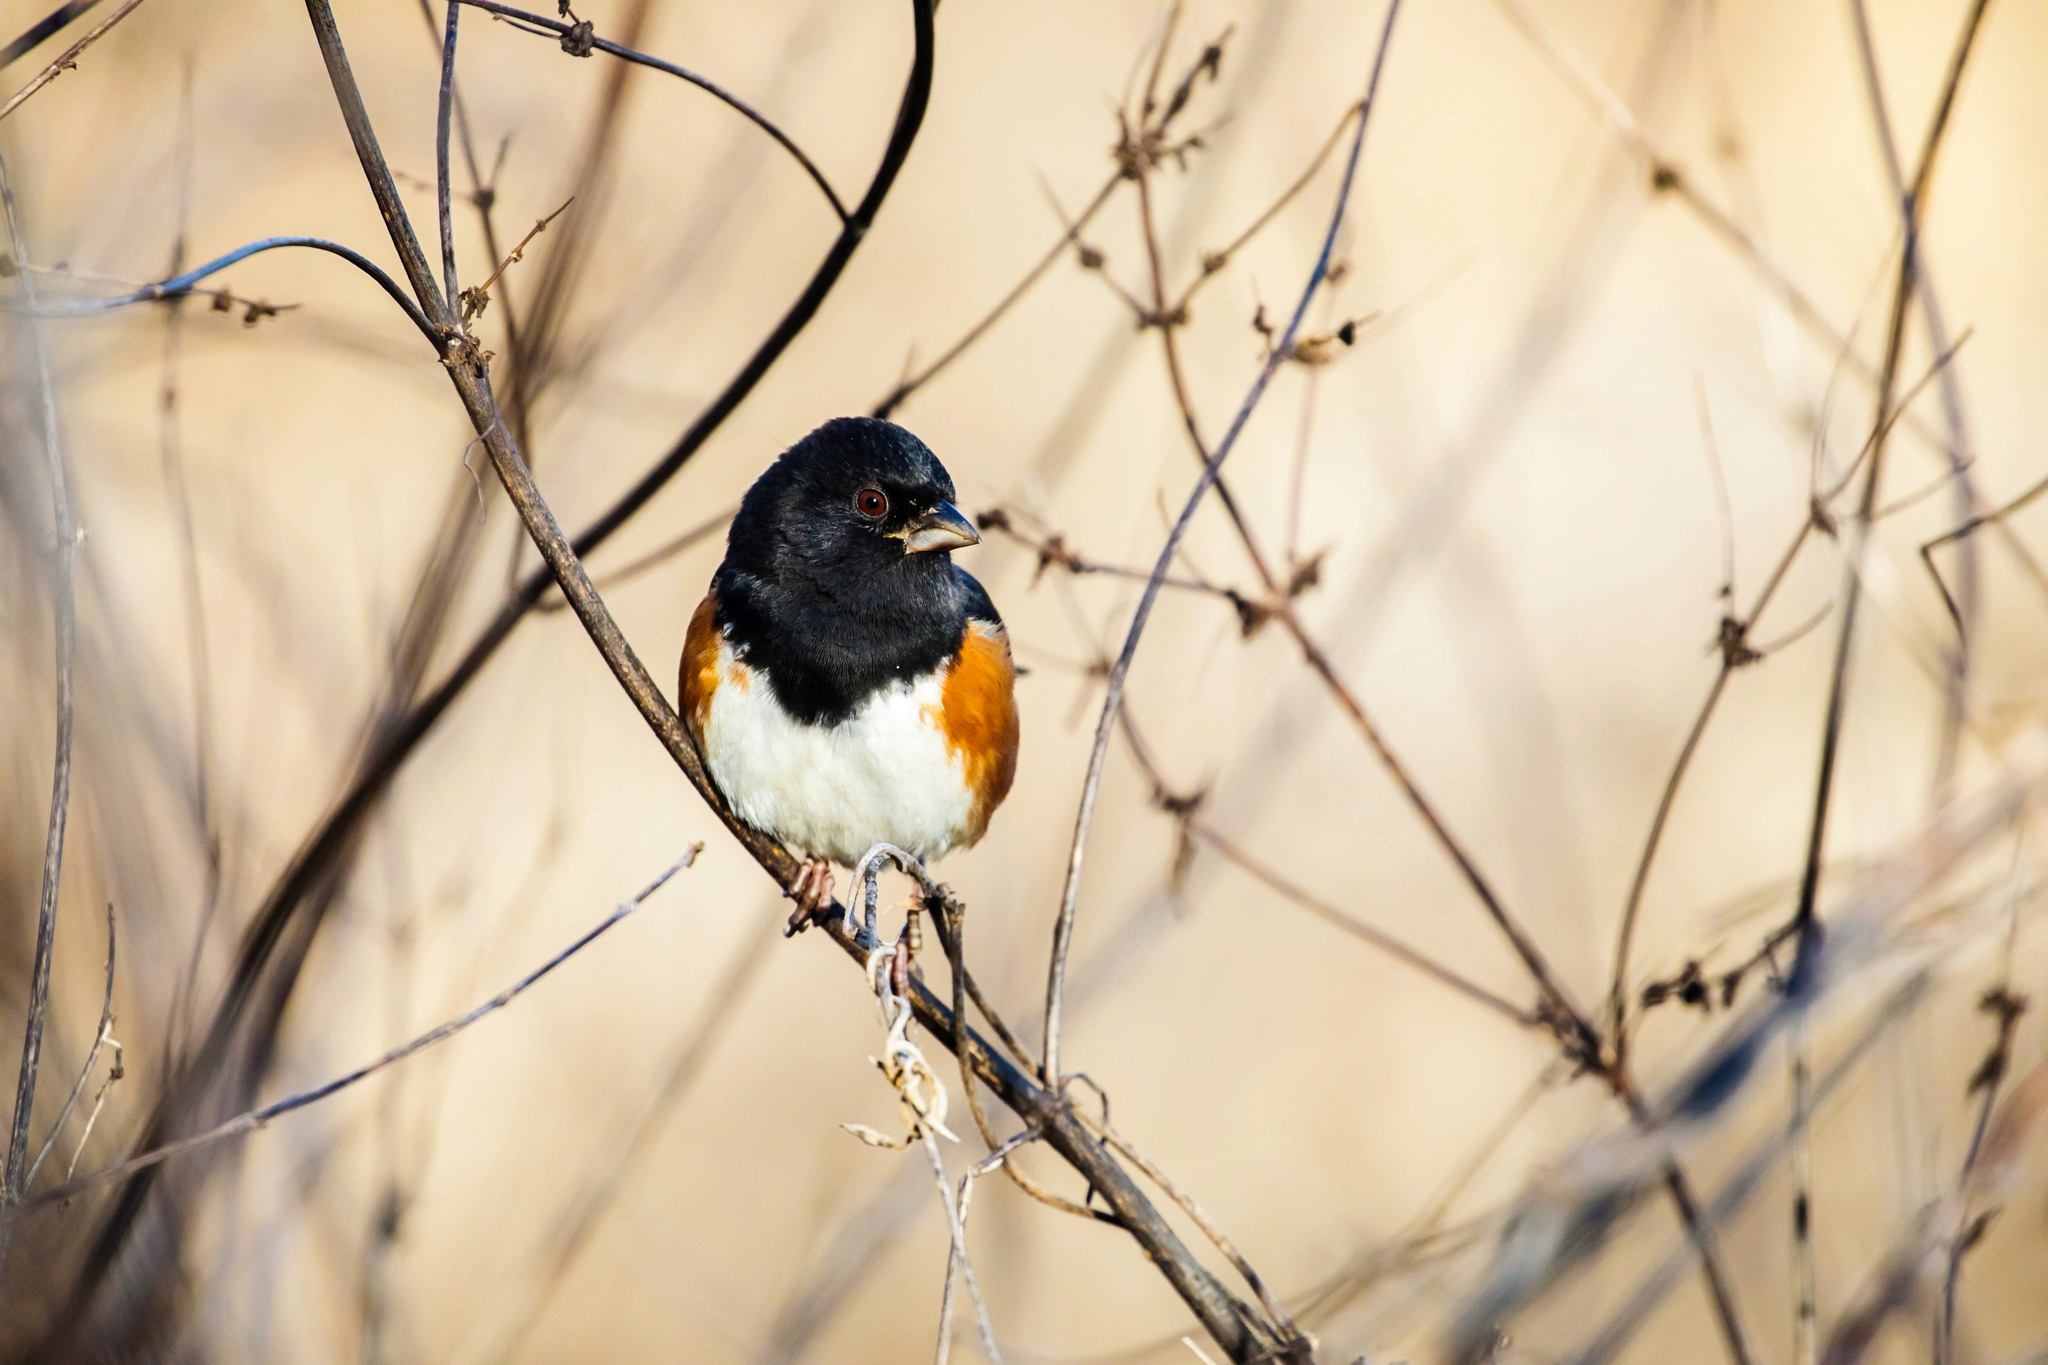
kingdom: Animalia
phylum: Chordata
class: Aves
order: Passeriformes
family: Passerellidae
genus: Pipilo
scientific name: Pipilo erythrophthalmus
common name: Eastern towhee
